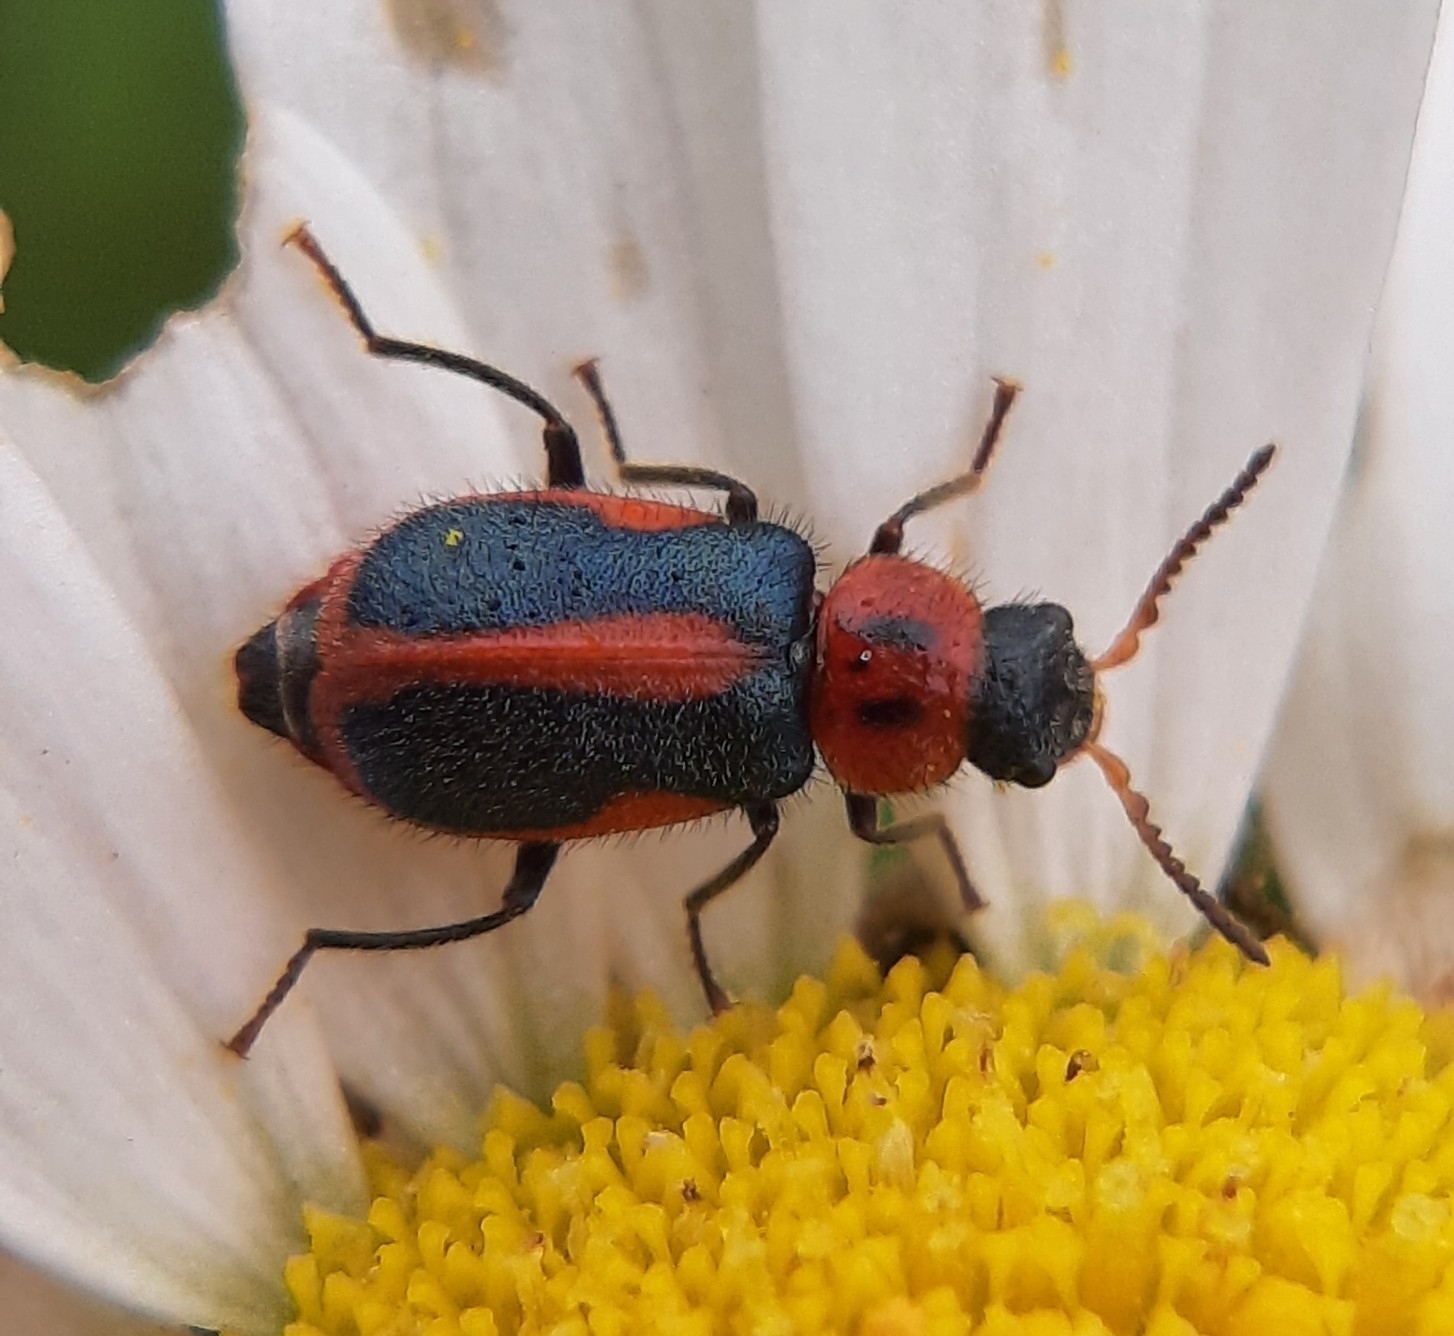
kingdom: Animalia
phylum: Arthropoda
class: Insecta
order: Coleoptera
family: Melyridae
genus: Collops
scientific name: Collops vittatus
